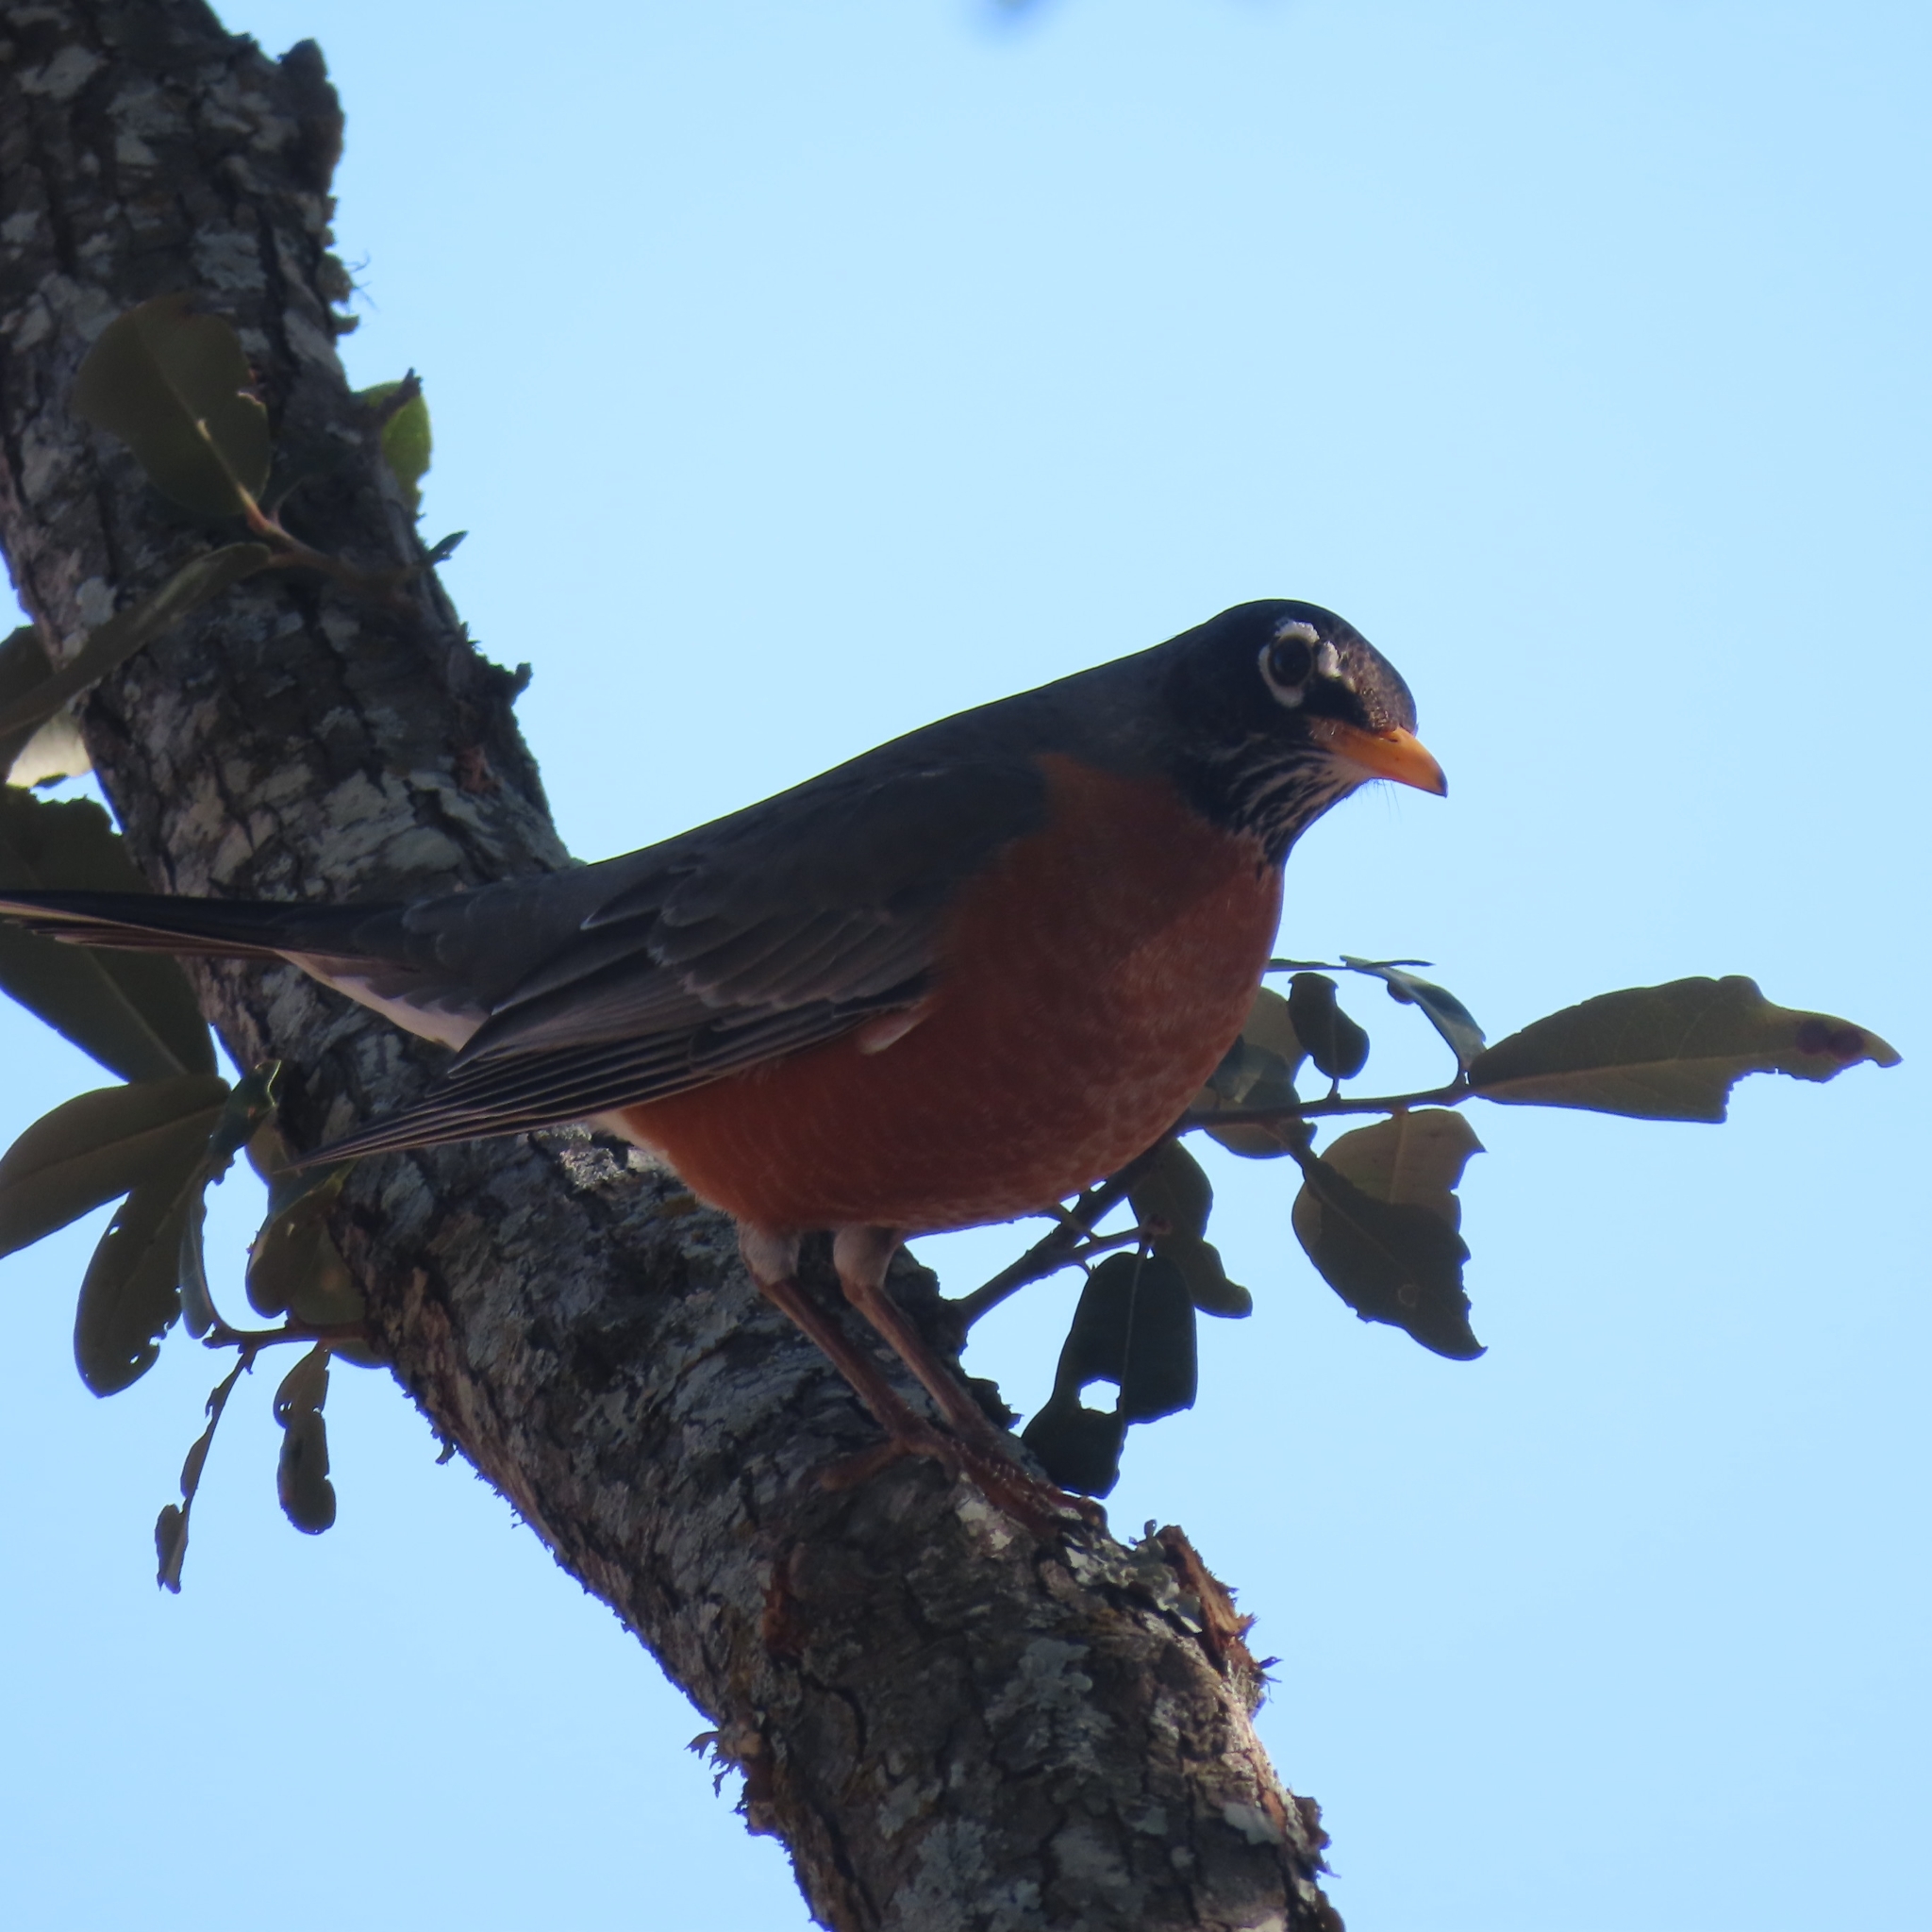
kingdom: Animalia
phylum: Chordata
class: Aves
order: Passeriformes
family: Turdidae
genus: Turdus
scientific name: Turdus migratorius
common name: American robin
